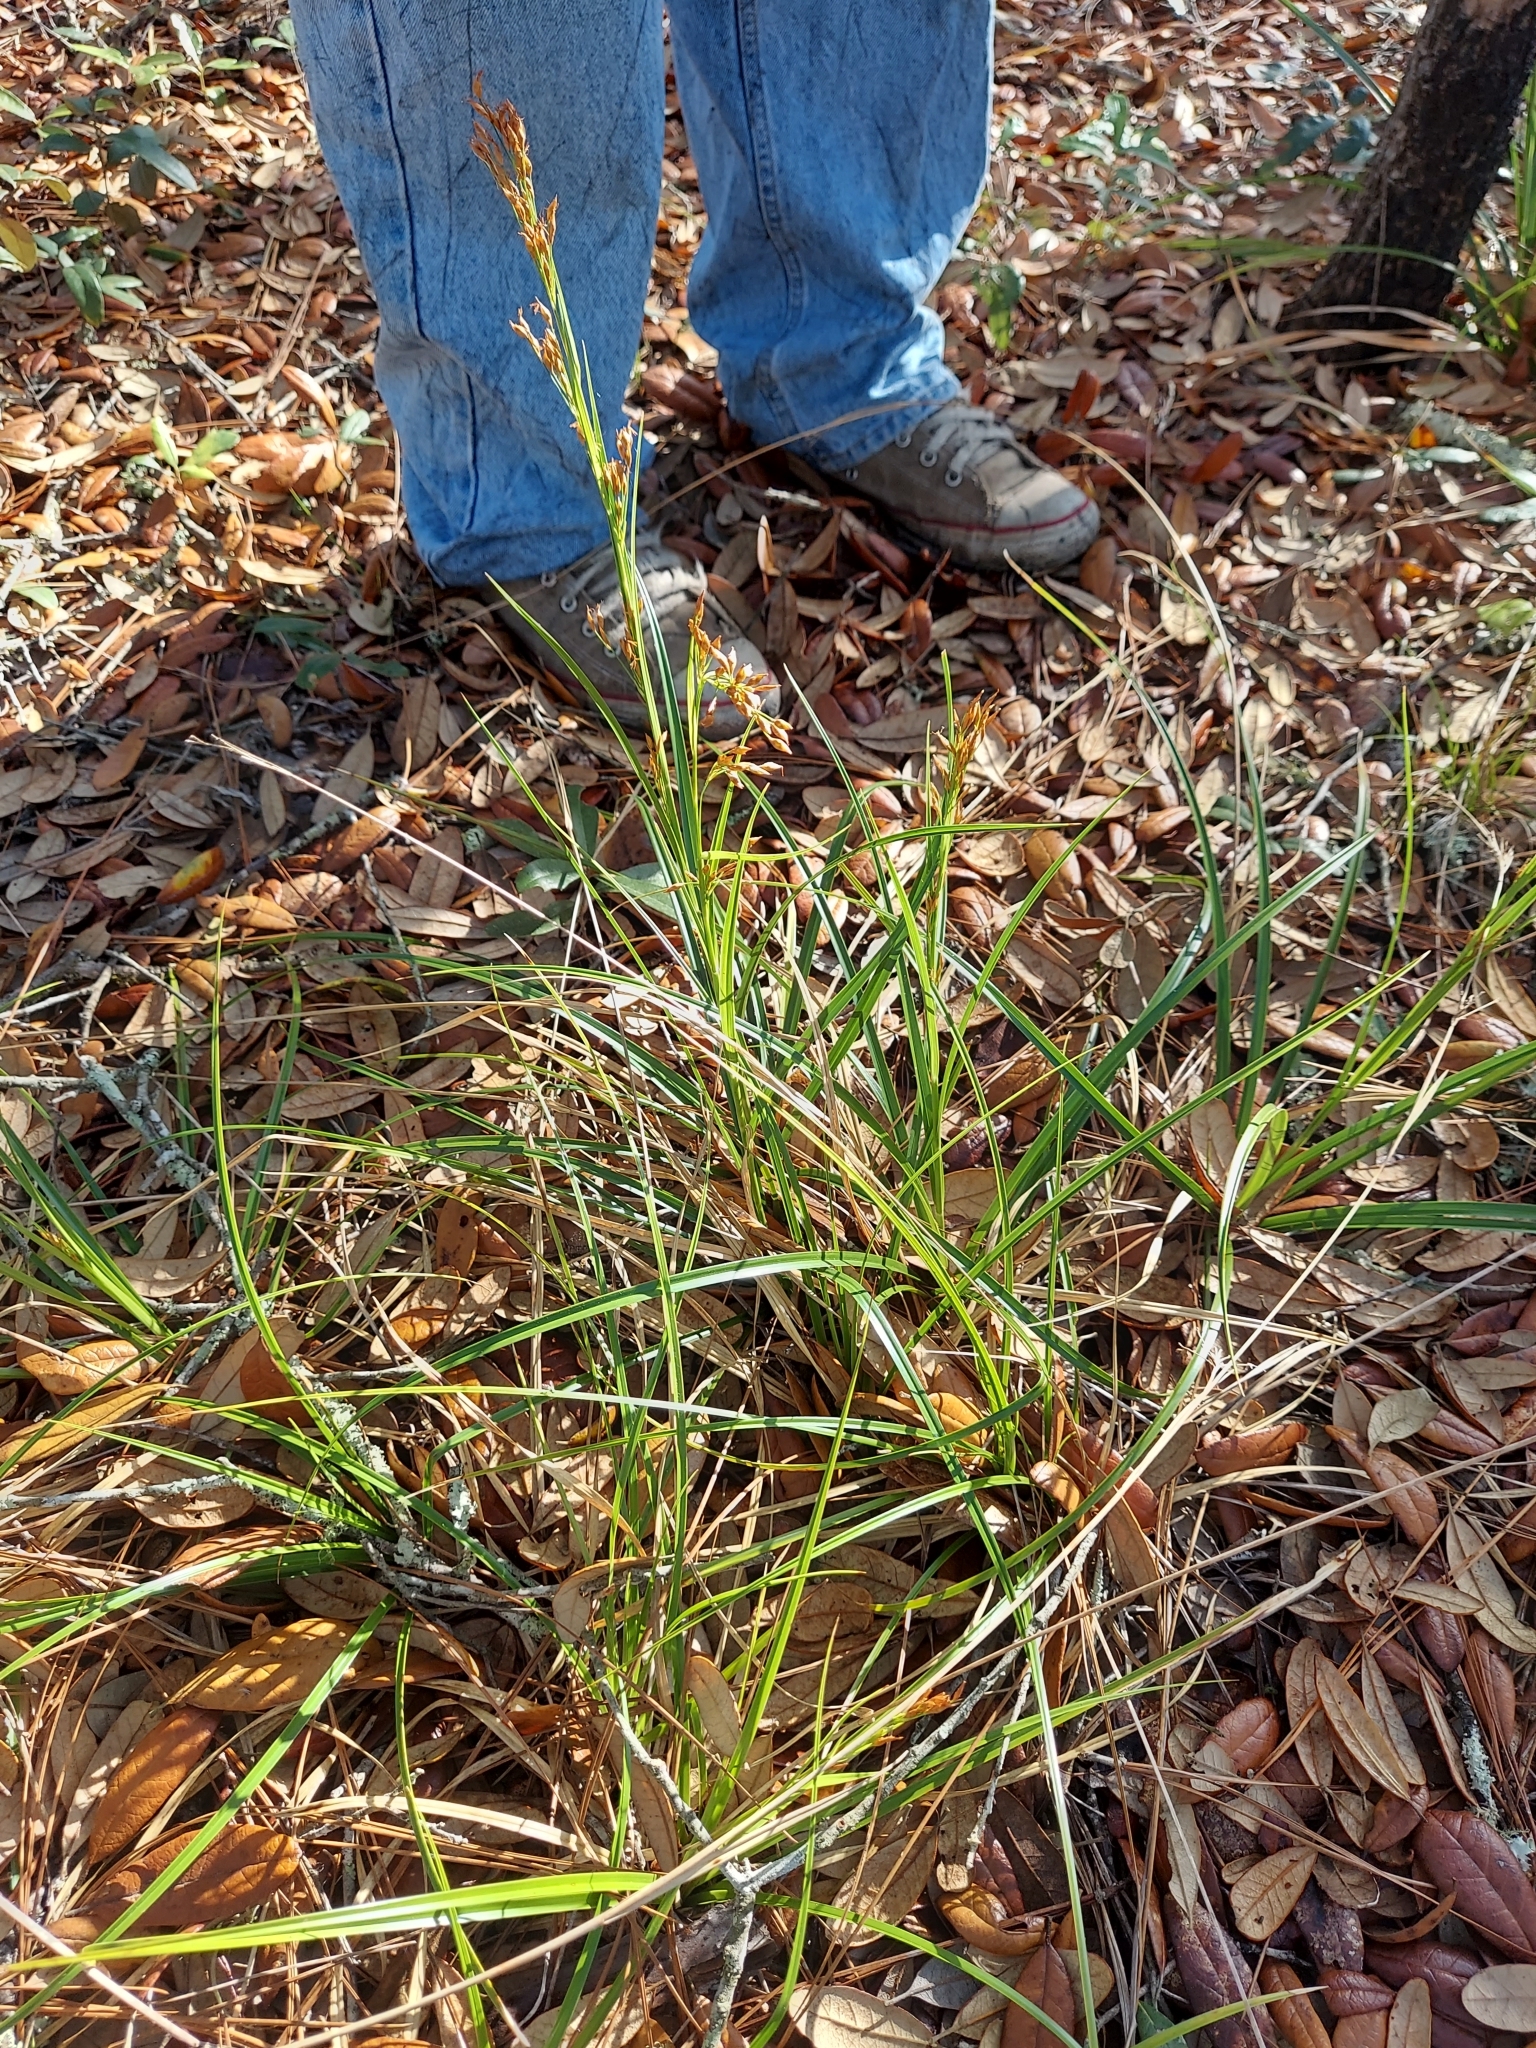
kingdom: Plantae
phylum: Tracheophyta
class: Liliopsida
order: Poales
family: Cyperaceae
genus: Rhynchospora
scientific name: Rhynchospora megalocarpa
